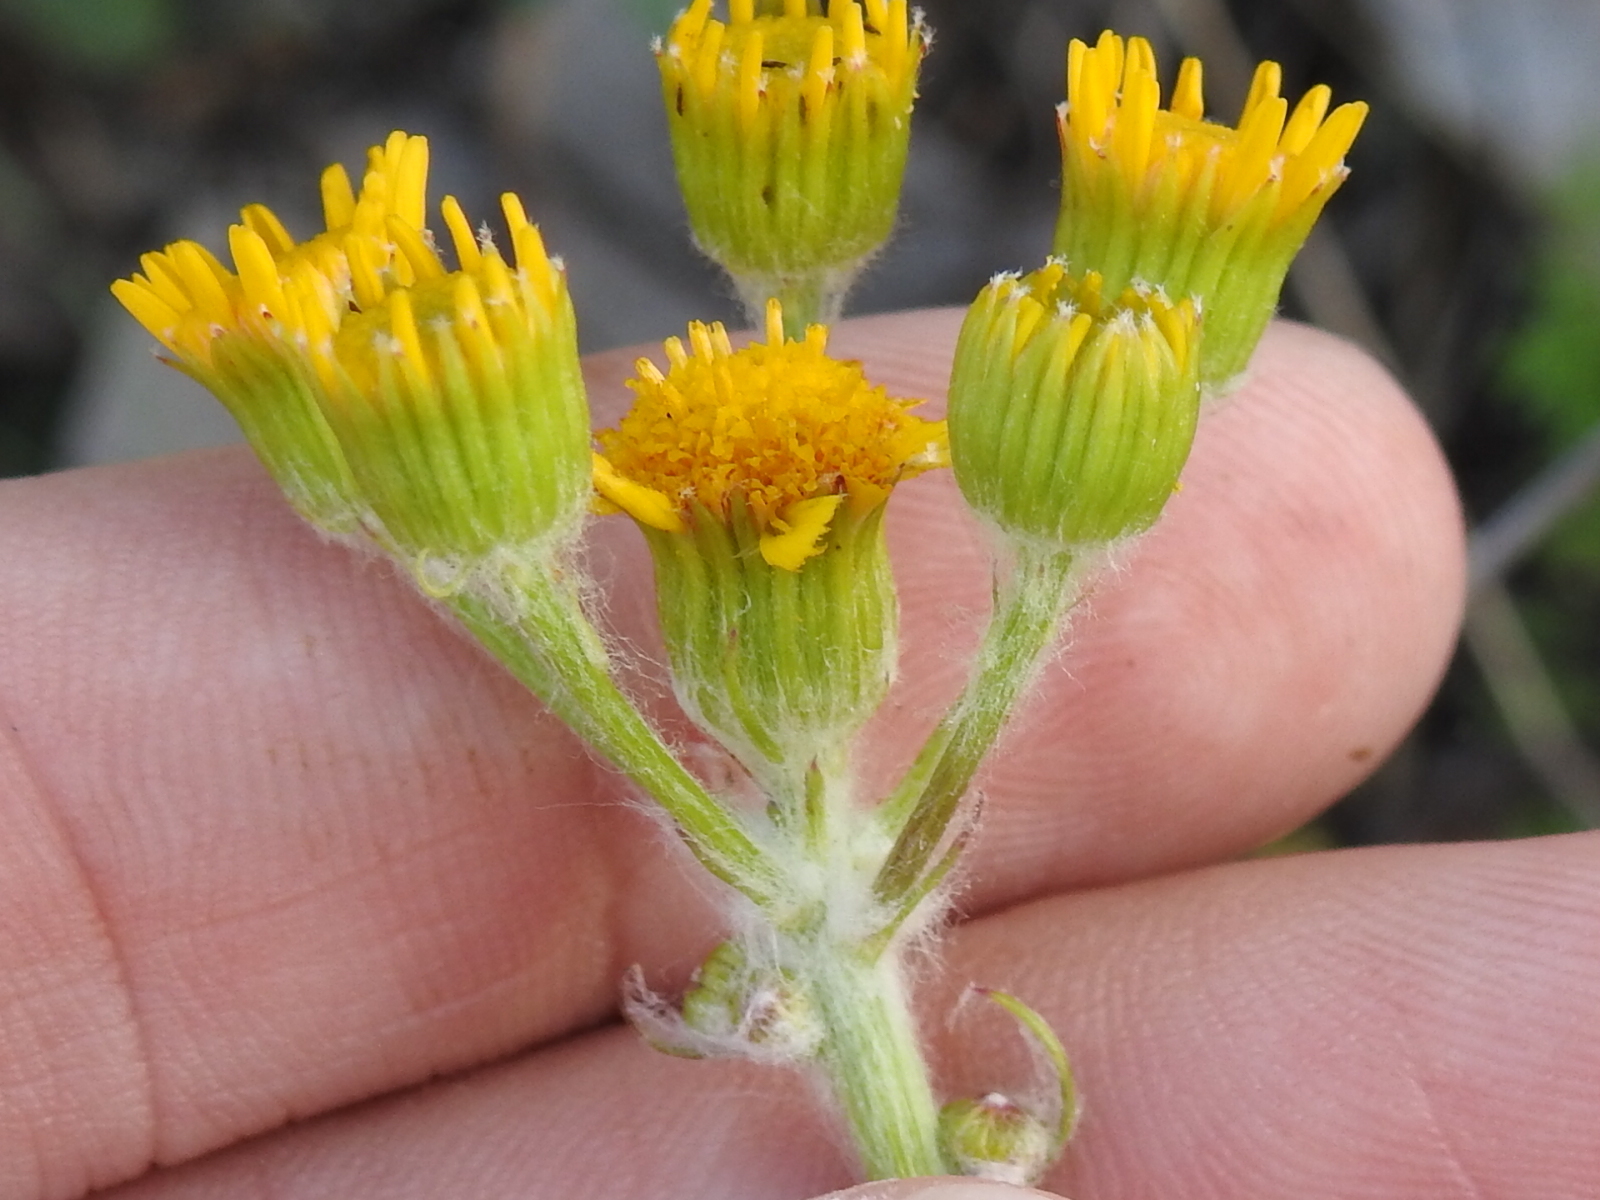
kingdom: Plantae
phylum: Tracheophyta
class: Magnoliopsida
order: Asterales
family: Asteraceae
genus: Packera
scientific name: Packera plattensis
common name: Prairie groundsel
